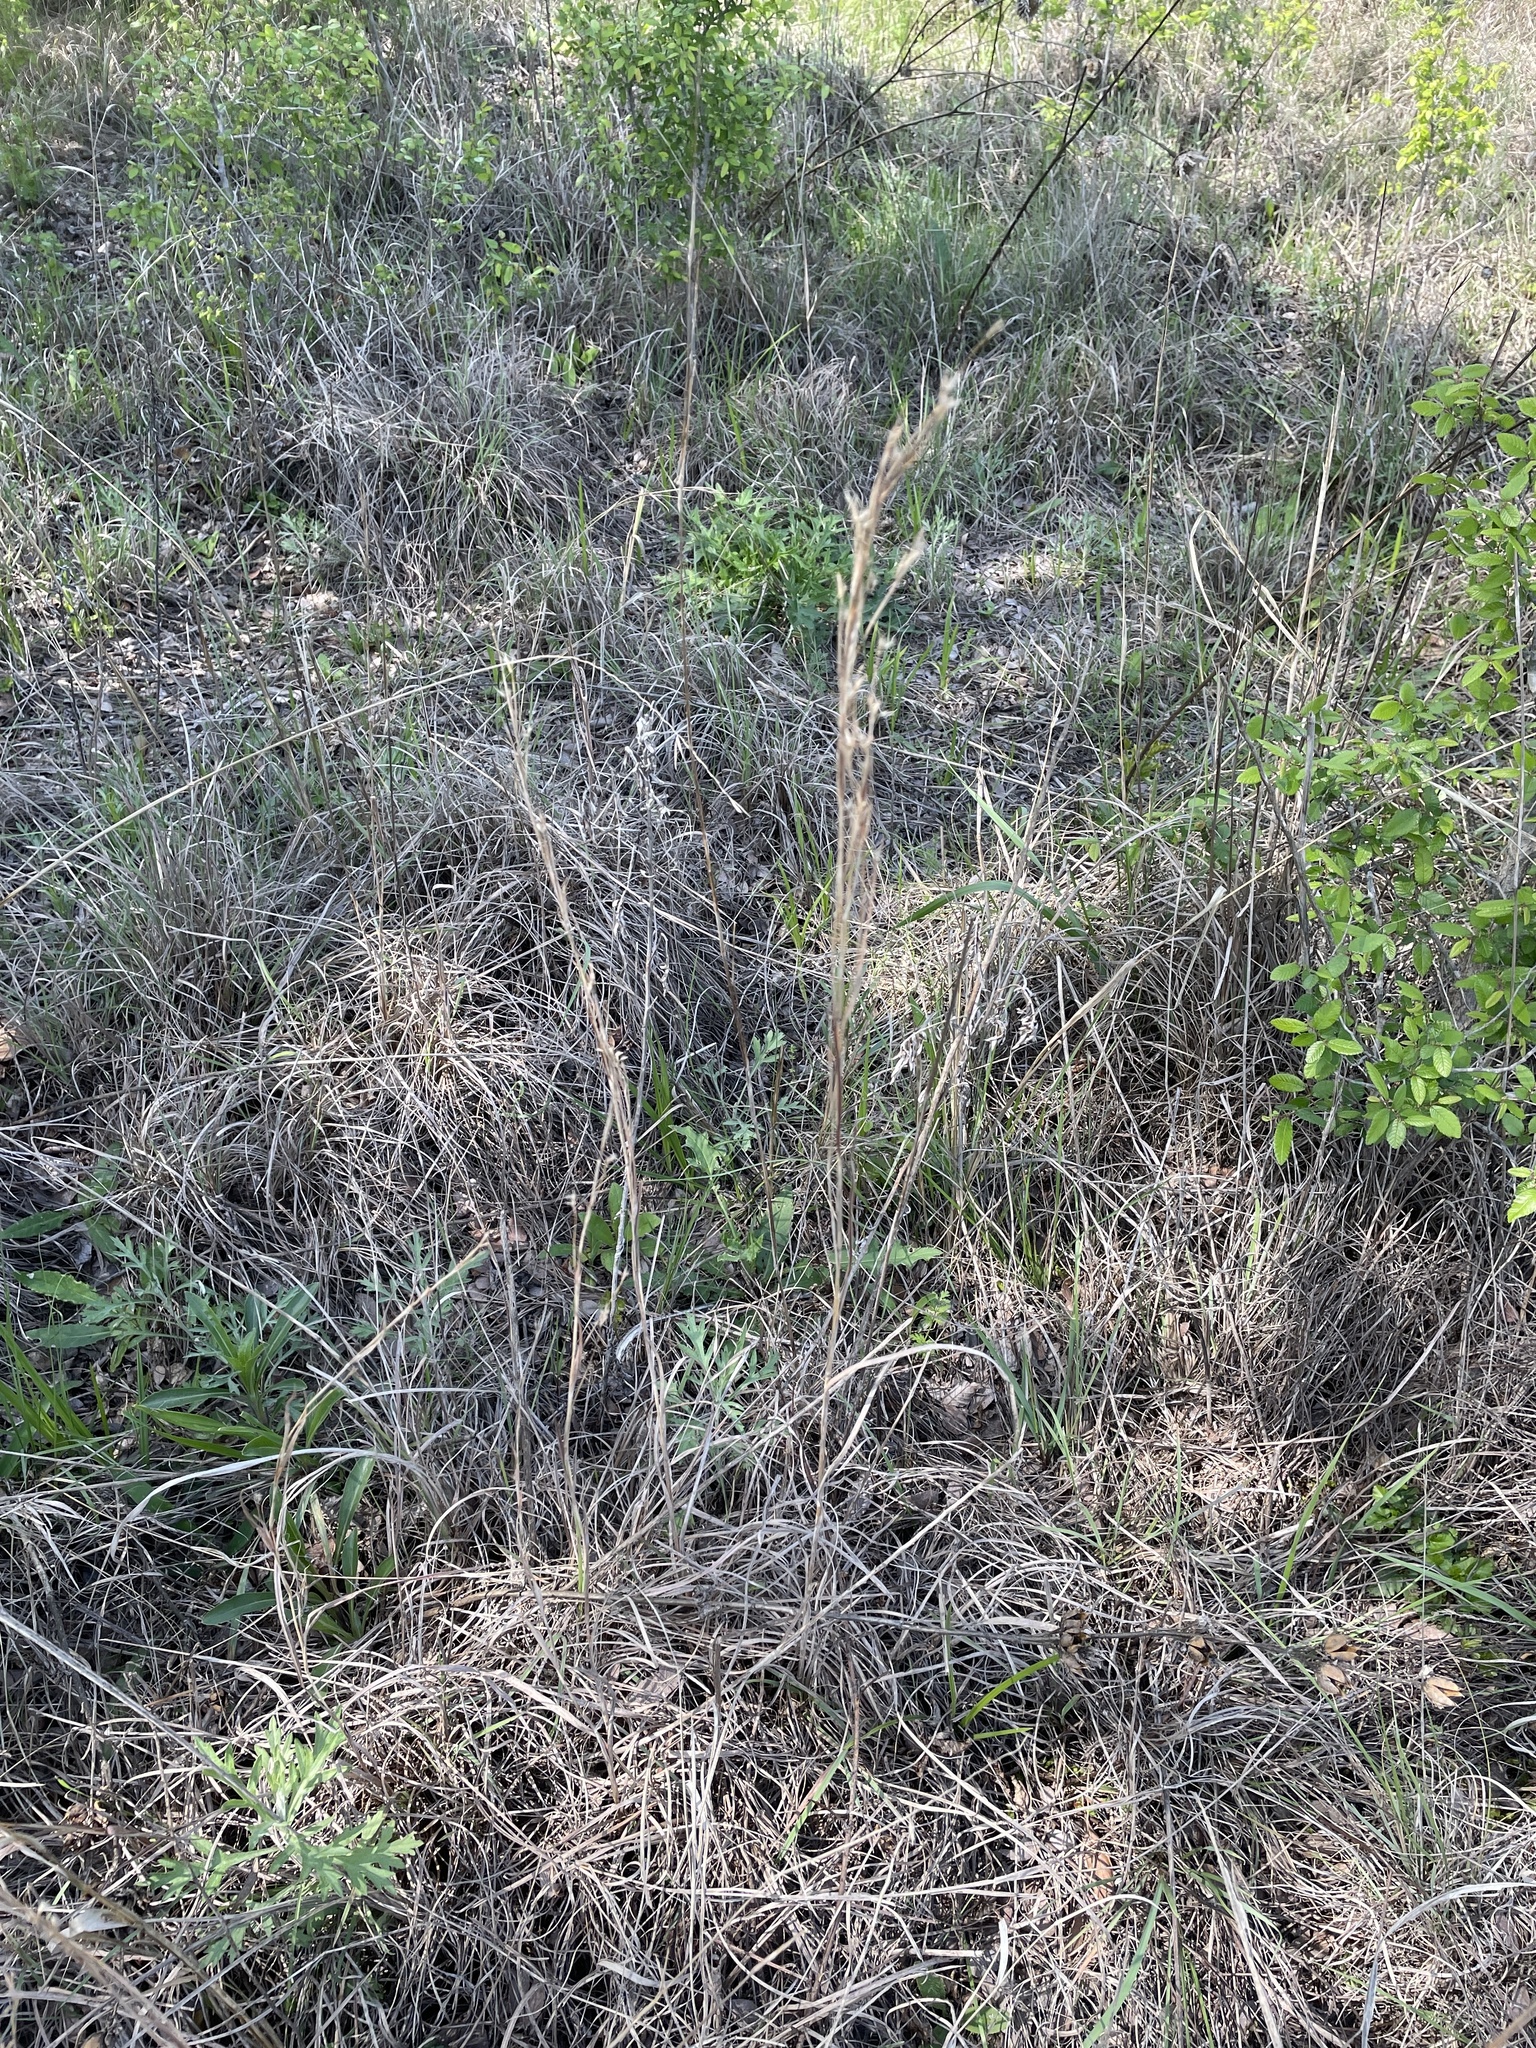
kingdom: Plantae
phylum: Tracheophyta
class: Liliopsida
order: Poales
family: Poaceae
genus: Schizachyrium
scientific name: Schizachyrium scoparium
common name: Little bluestem
